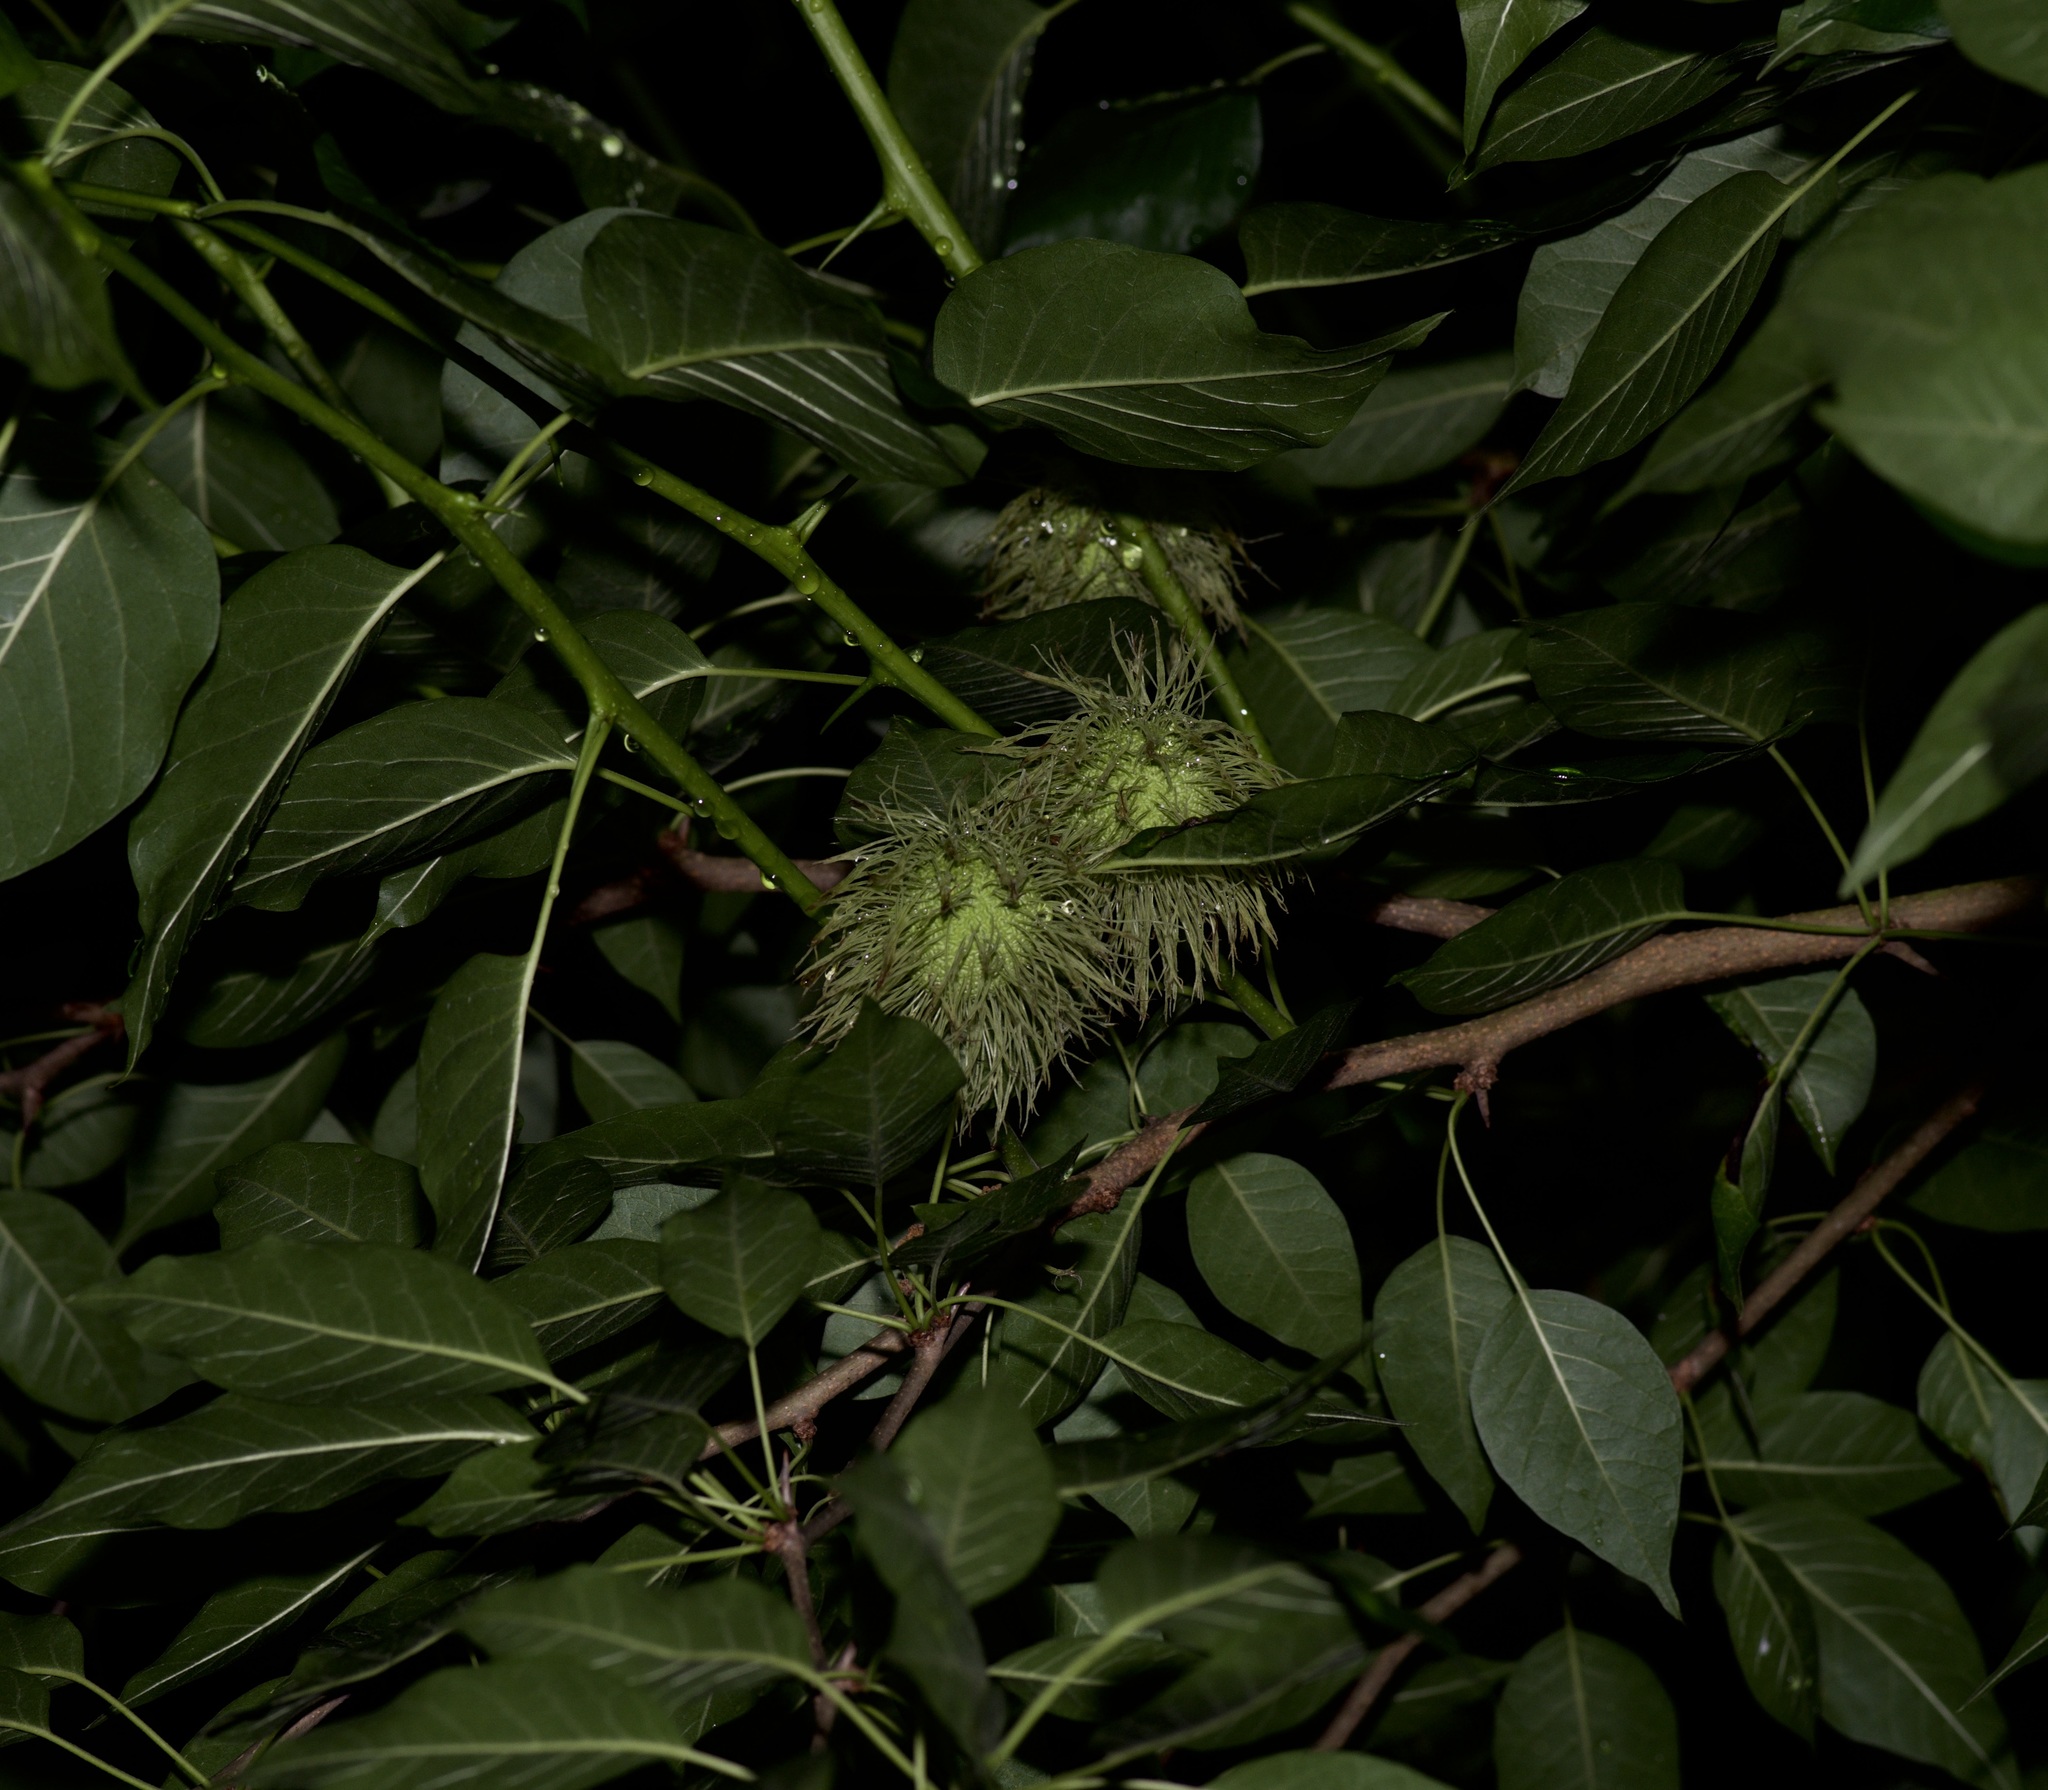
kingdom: Plantae
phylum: Tracheophyta
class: Magnoliopsida
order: Rosales
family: Moraceae
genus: Maclura
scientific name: Maclura pomifera
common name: Osage-orange
